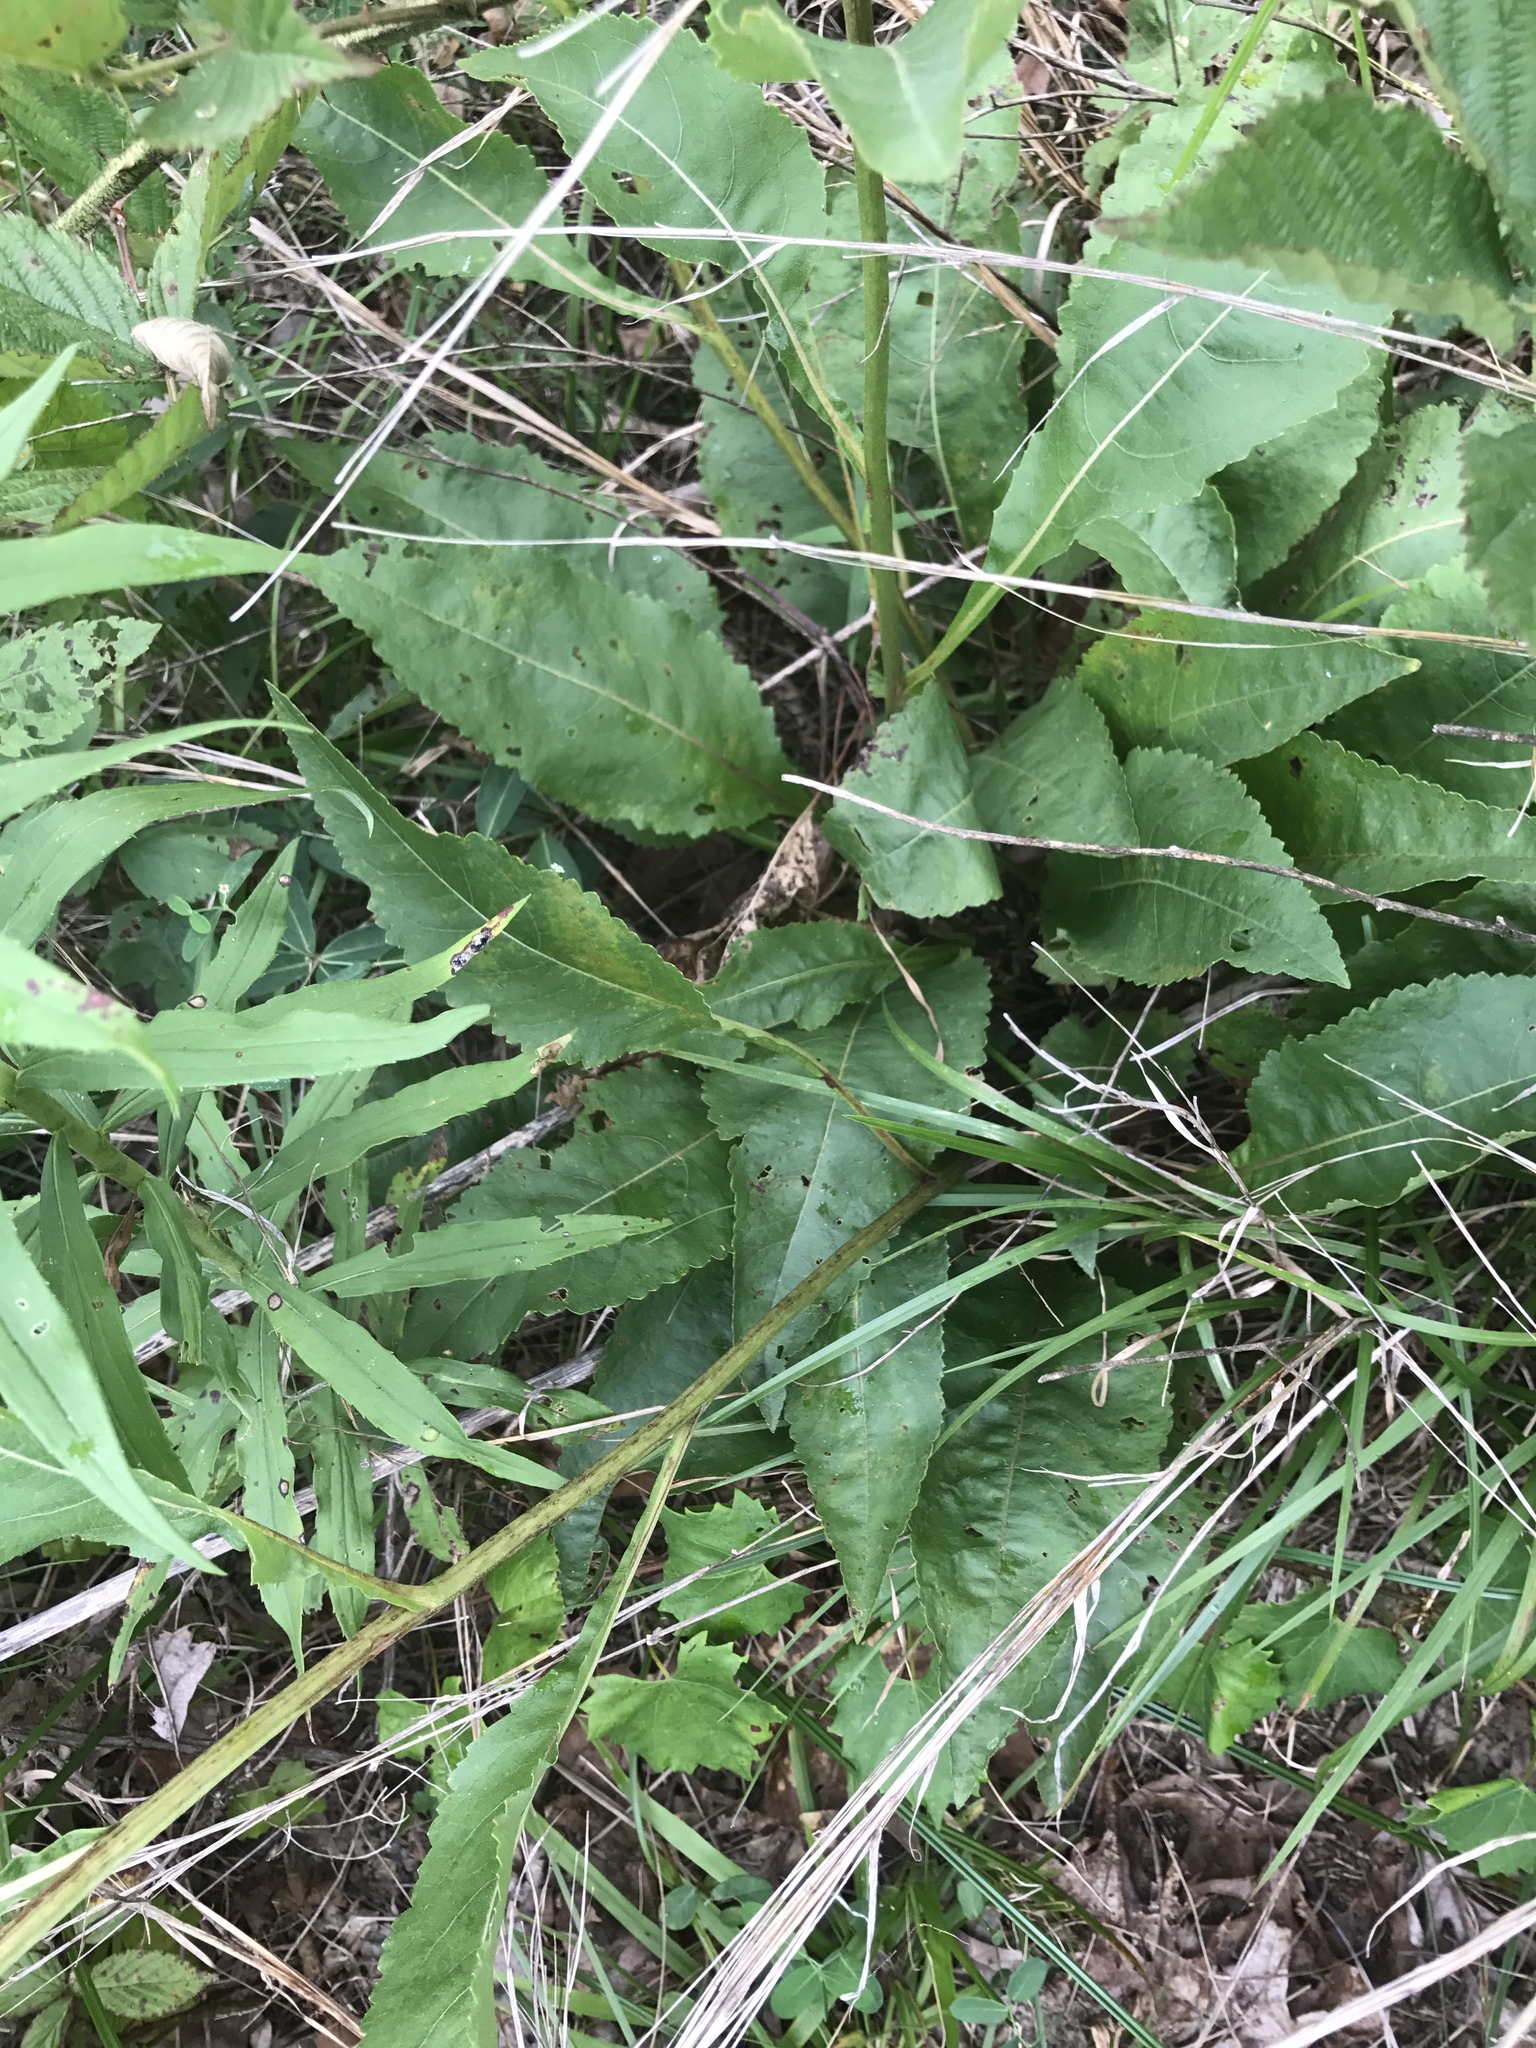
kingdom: Plantae
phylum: Tracheophyta
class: Magnoliopsida
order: Asterales
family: Asteraceae
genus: Parthenium
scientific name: Parthenium integrifolium
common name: American feverfew
